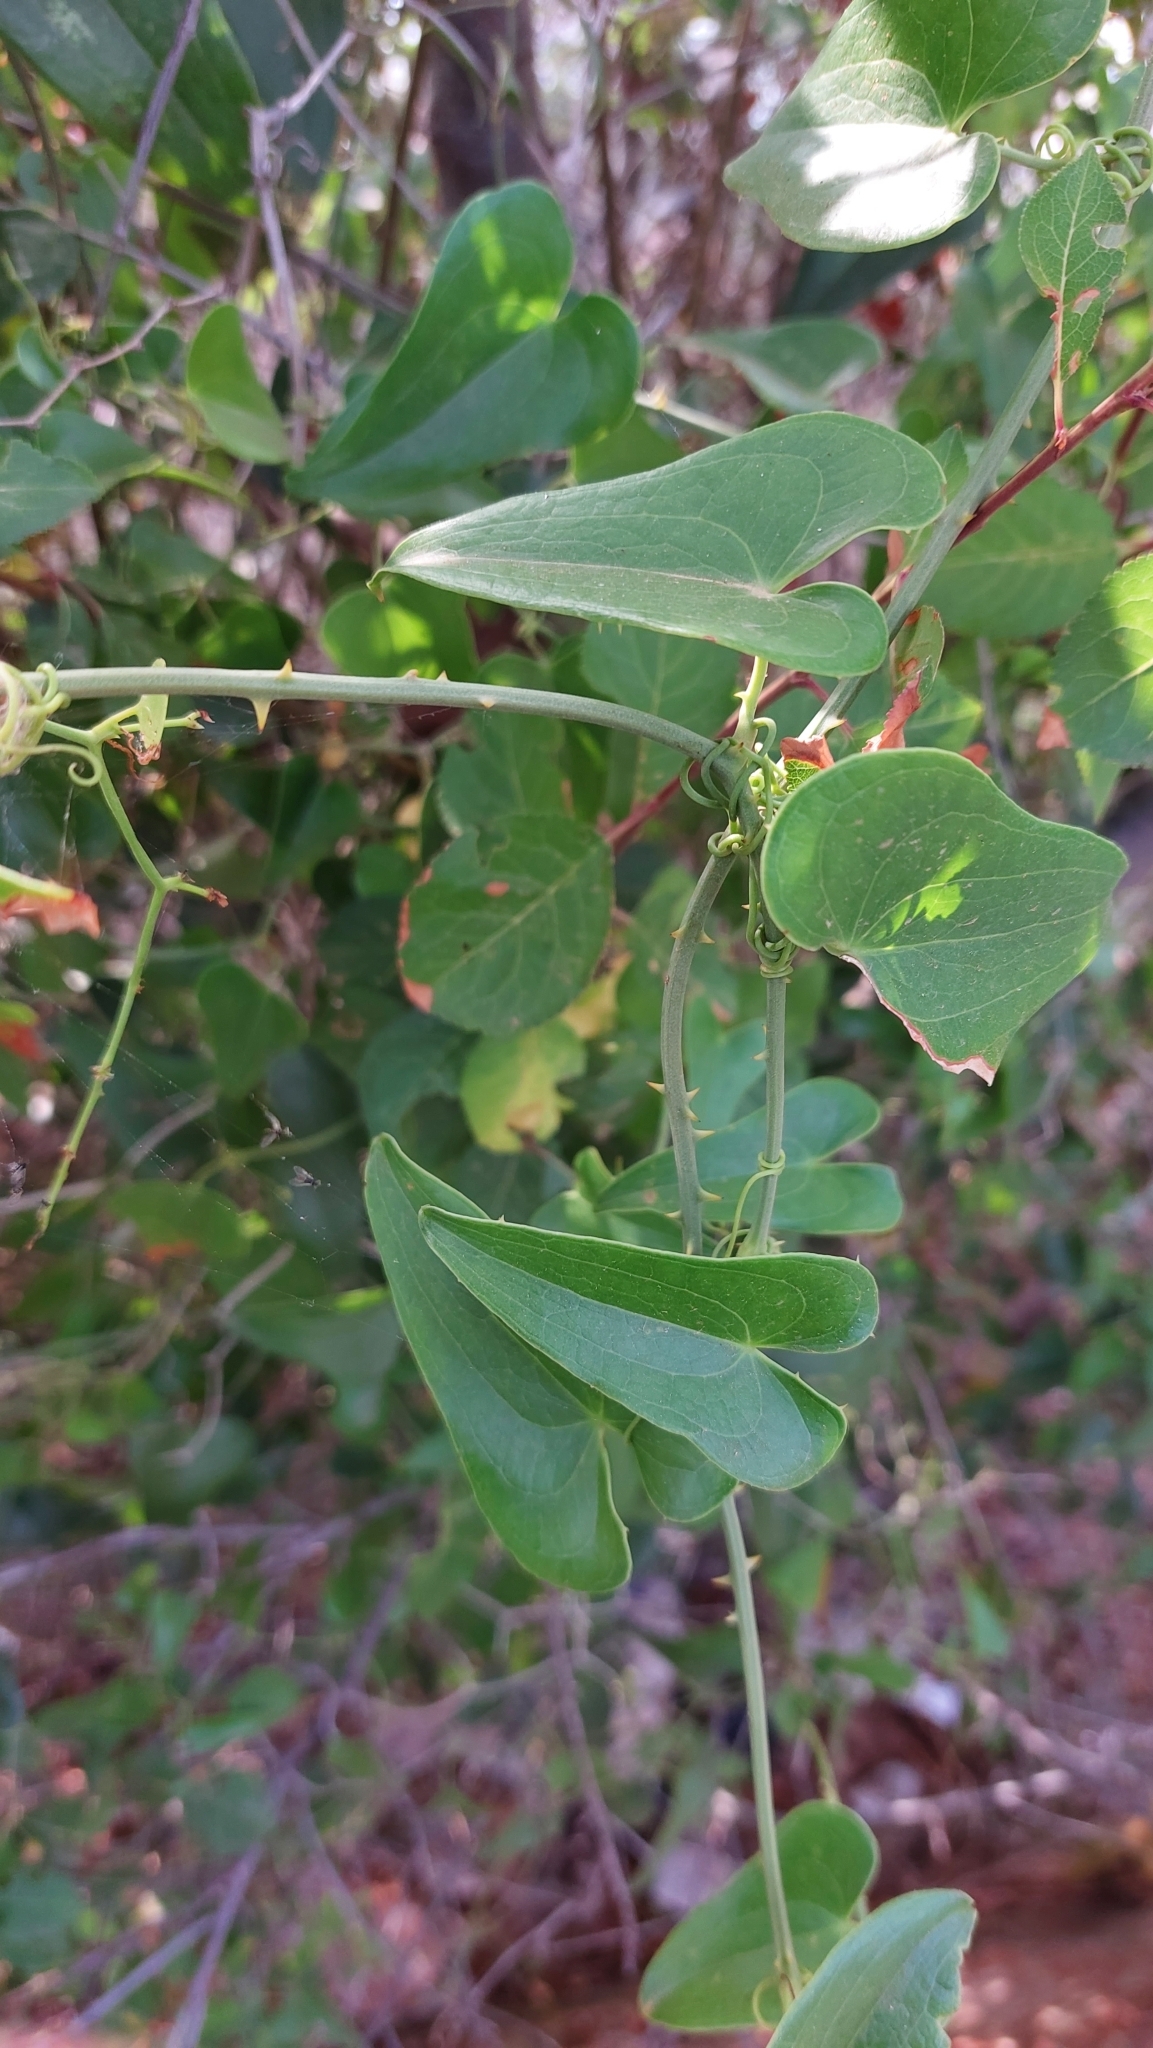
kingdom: Plantae
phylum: Tracheophyta
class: Liliopsida
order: Liliales
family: Smilacaceae
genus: Smilax
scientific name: Smilax aspera
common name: Common smilax
